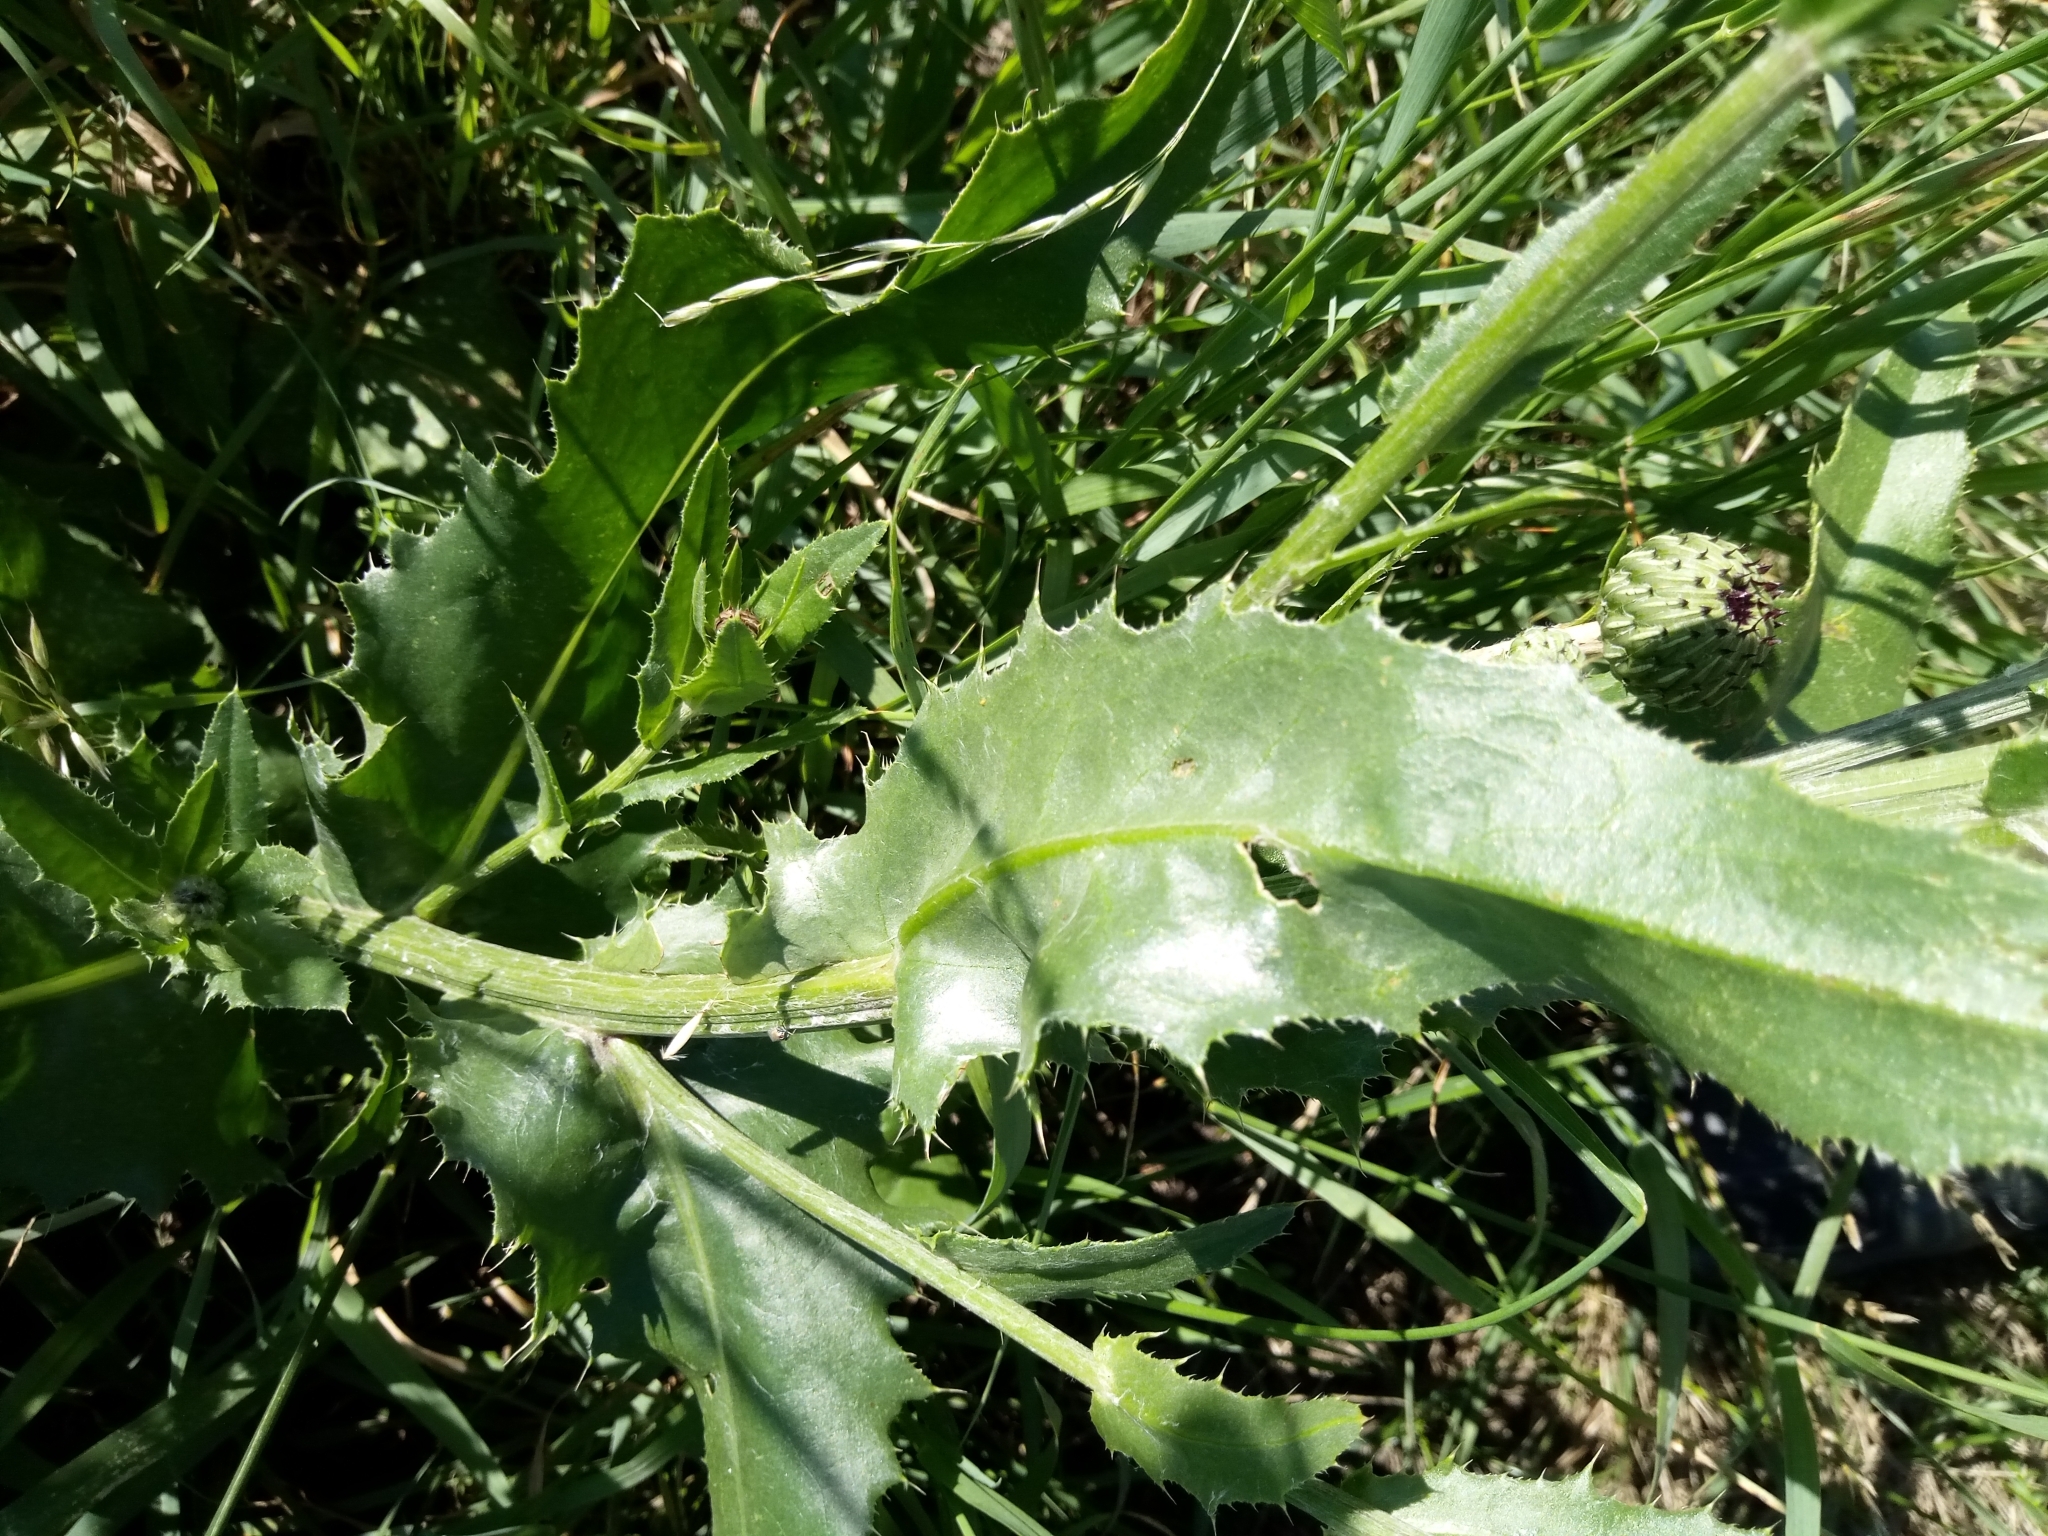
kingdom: Plantae
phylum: Tracheophyta
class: Magnoliopsida
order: Asterales
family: Asteraceae
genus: Cirsium
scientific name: Cirsium canum
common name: Queen anne's thistle
